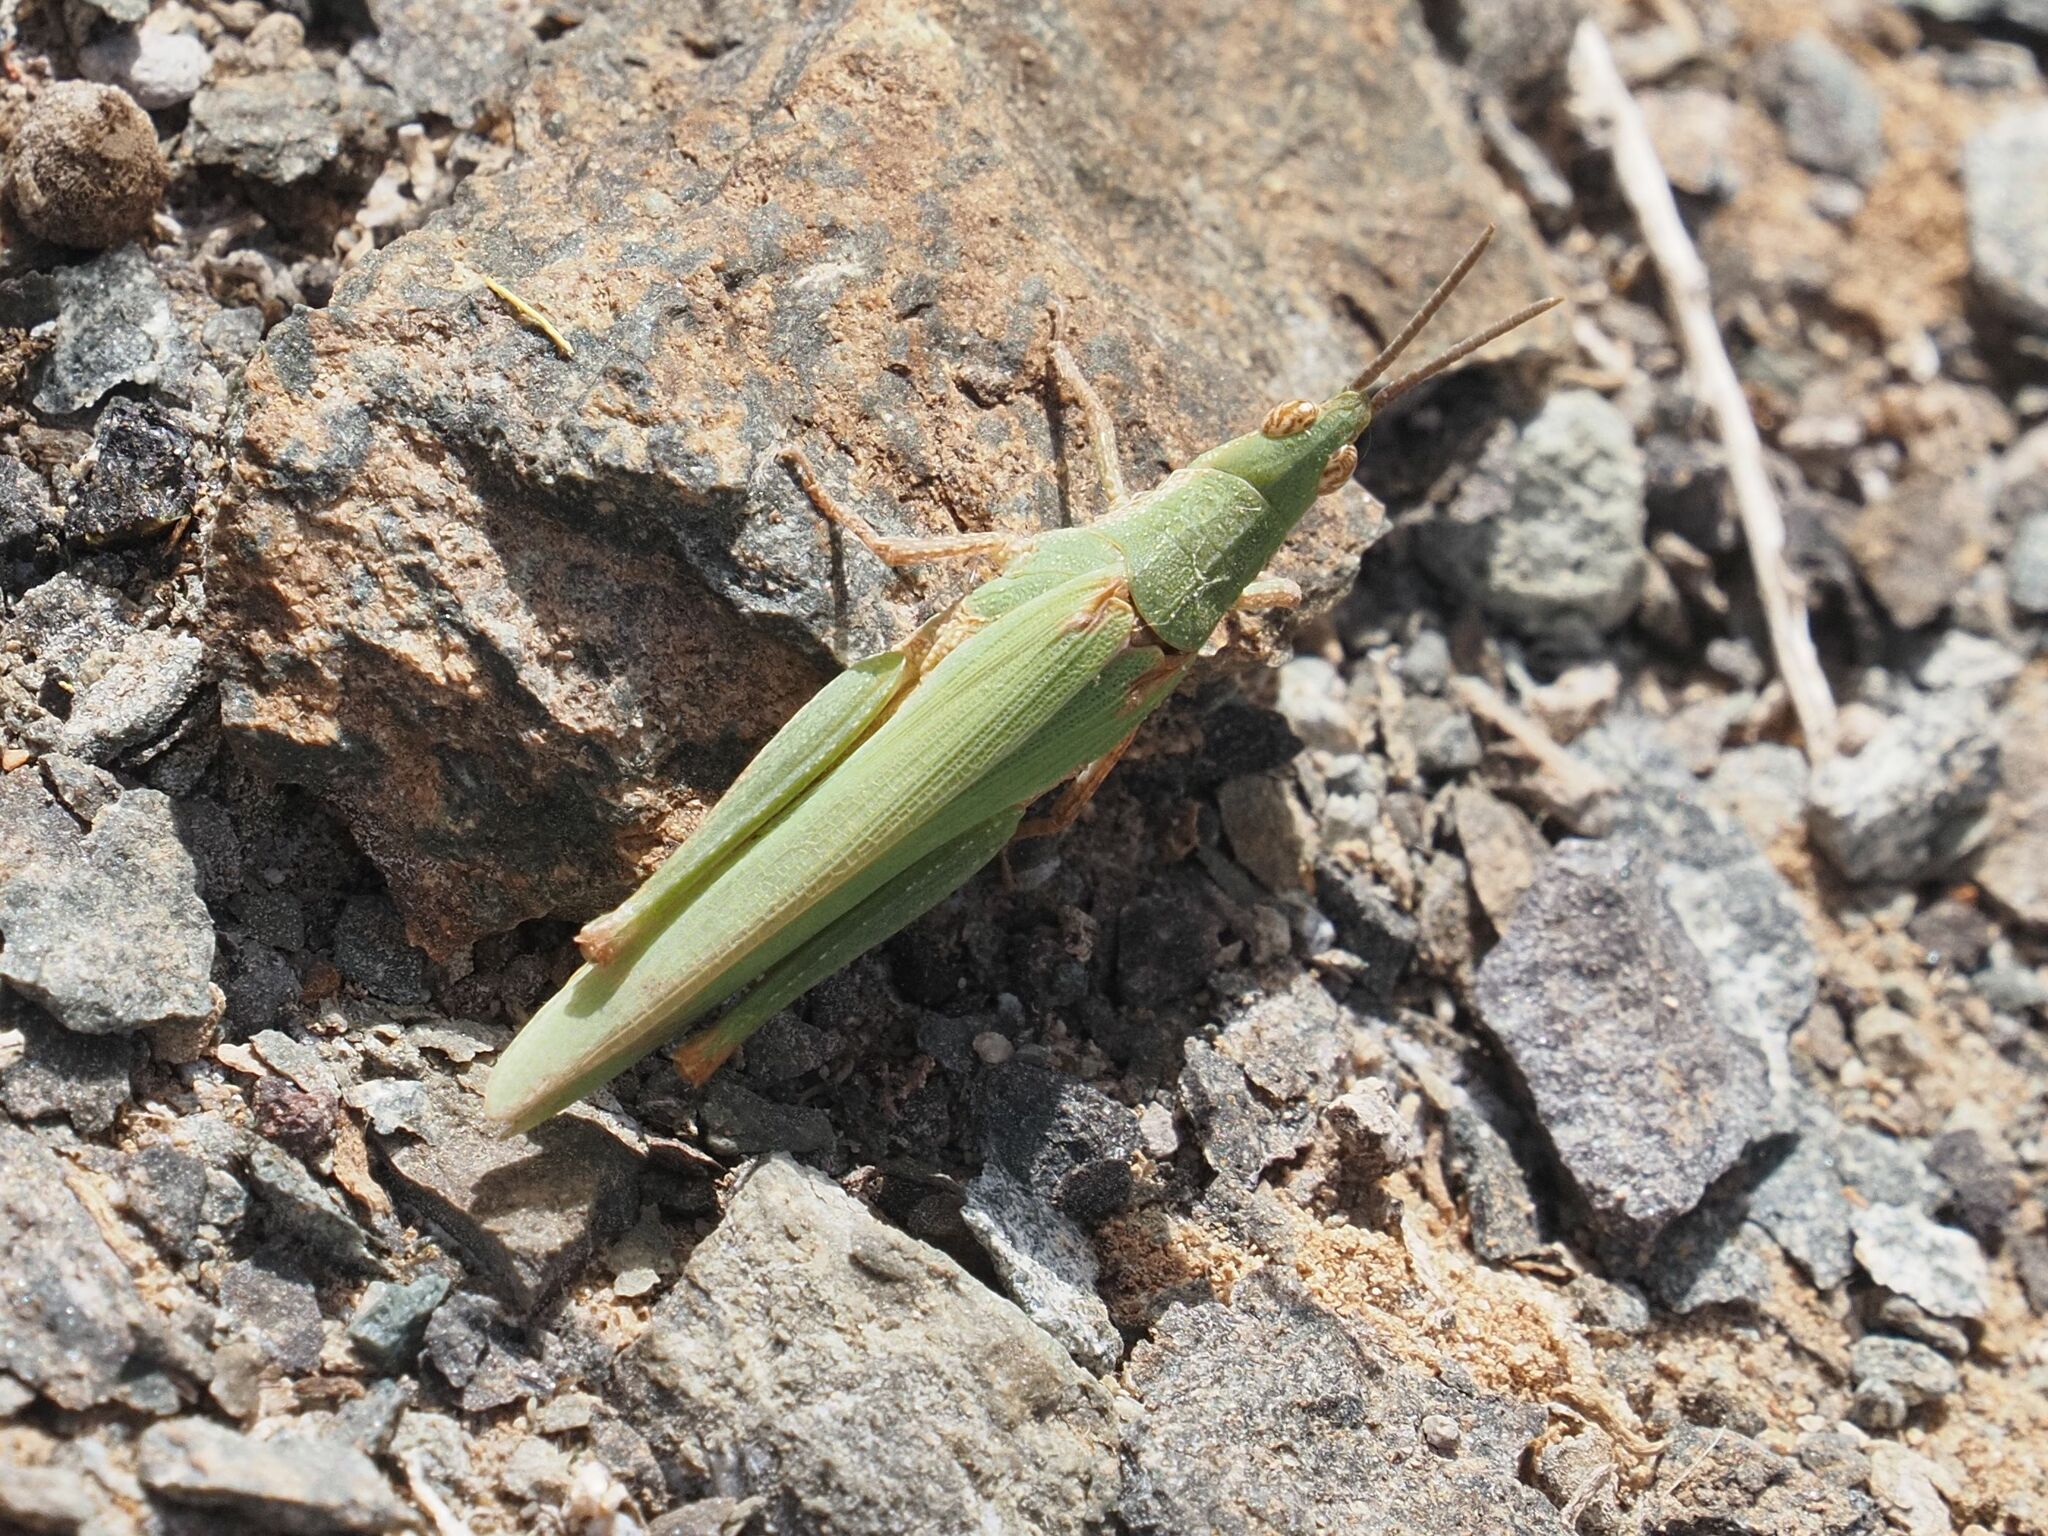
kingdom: Animalia
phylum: Arthropoda
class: Insecta
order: Orthoptera
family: Pyrgomorphidae
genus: Pyrgomorpha
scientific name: Pyrgomorpha conica
